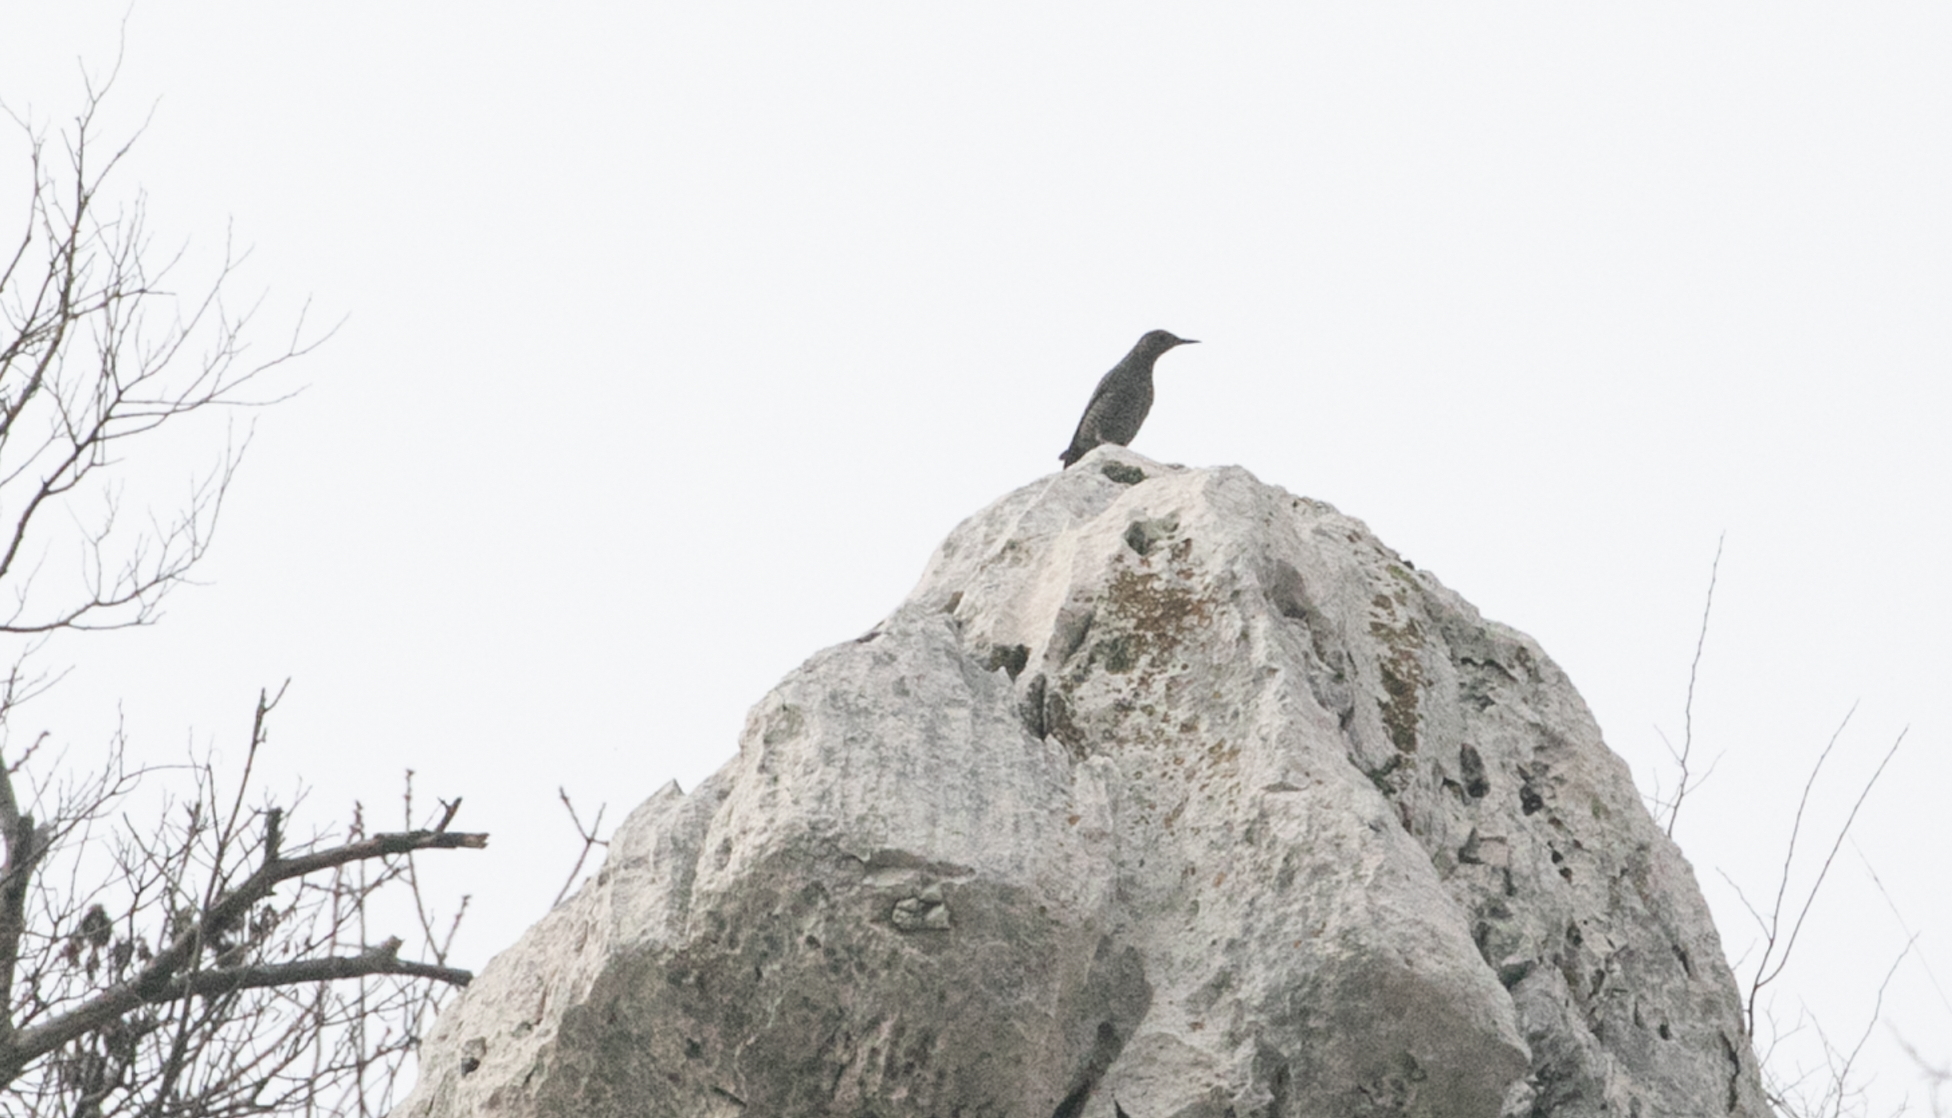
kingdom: Animalia
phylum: Chordata
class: Aves
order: Passeriformes
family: Muscicapidae
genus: Monticola
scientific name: Monticola solitarius
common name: Blue rock thrush
